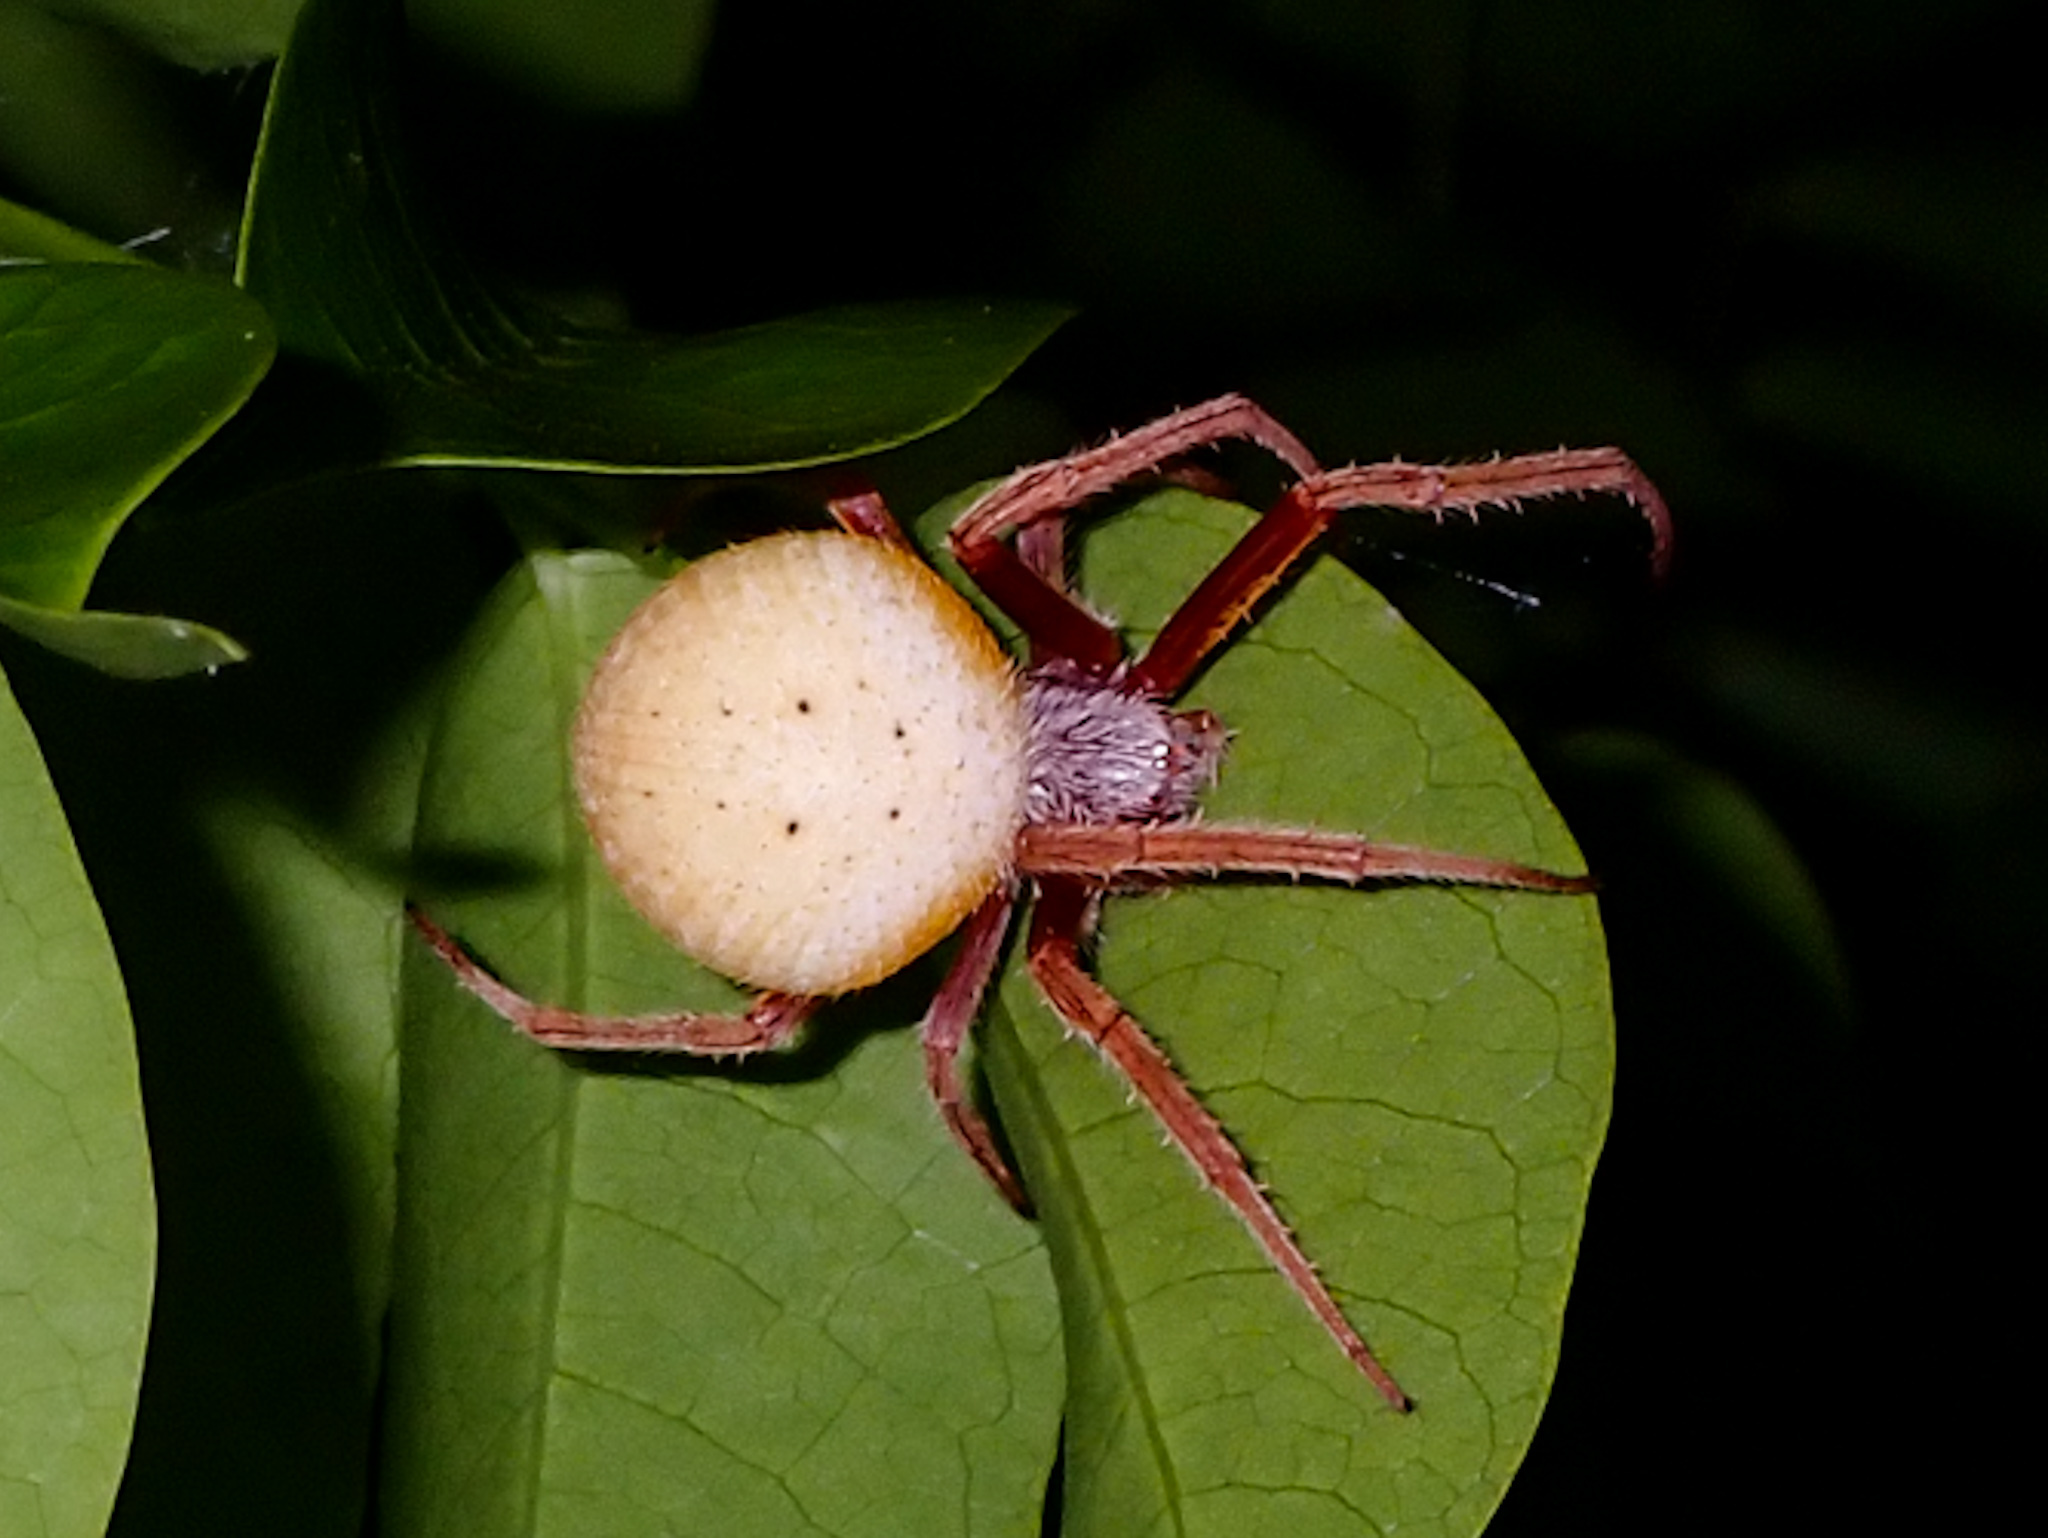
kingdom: Animalia
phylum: Arthropoda
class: Arachnida
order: Araneae
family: Araneidae
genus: Eriophora
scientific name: Eriophora ravilla
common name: Orb weavers
